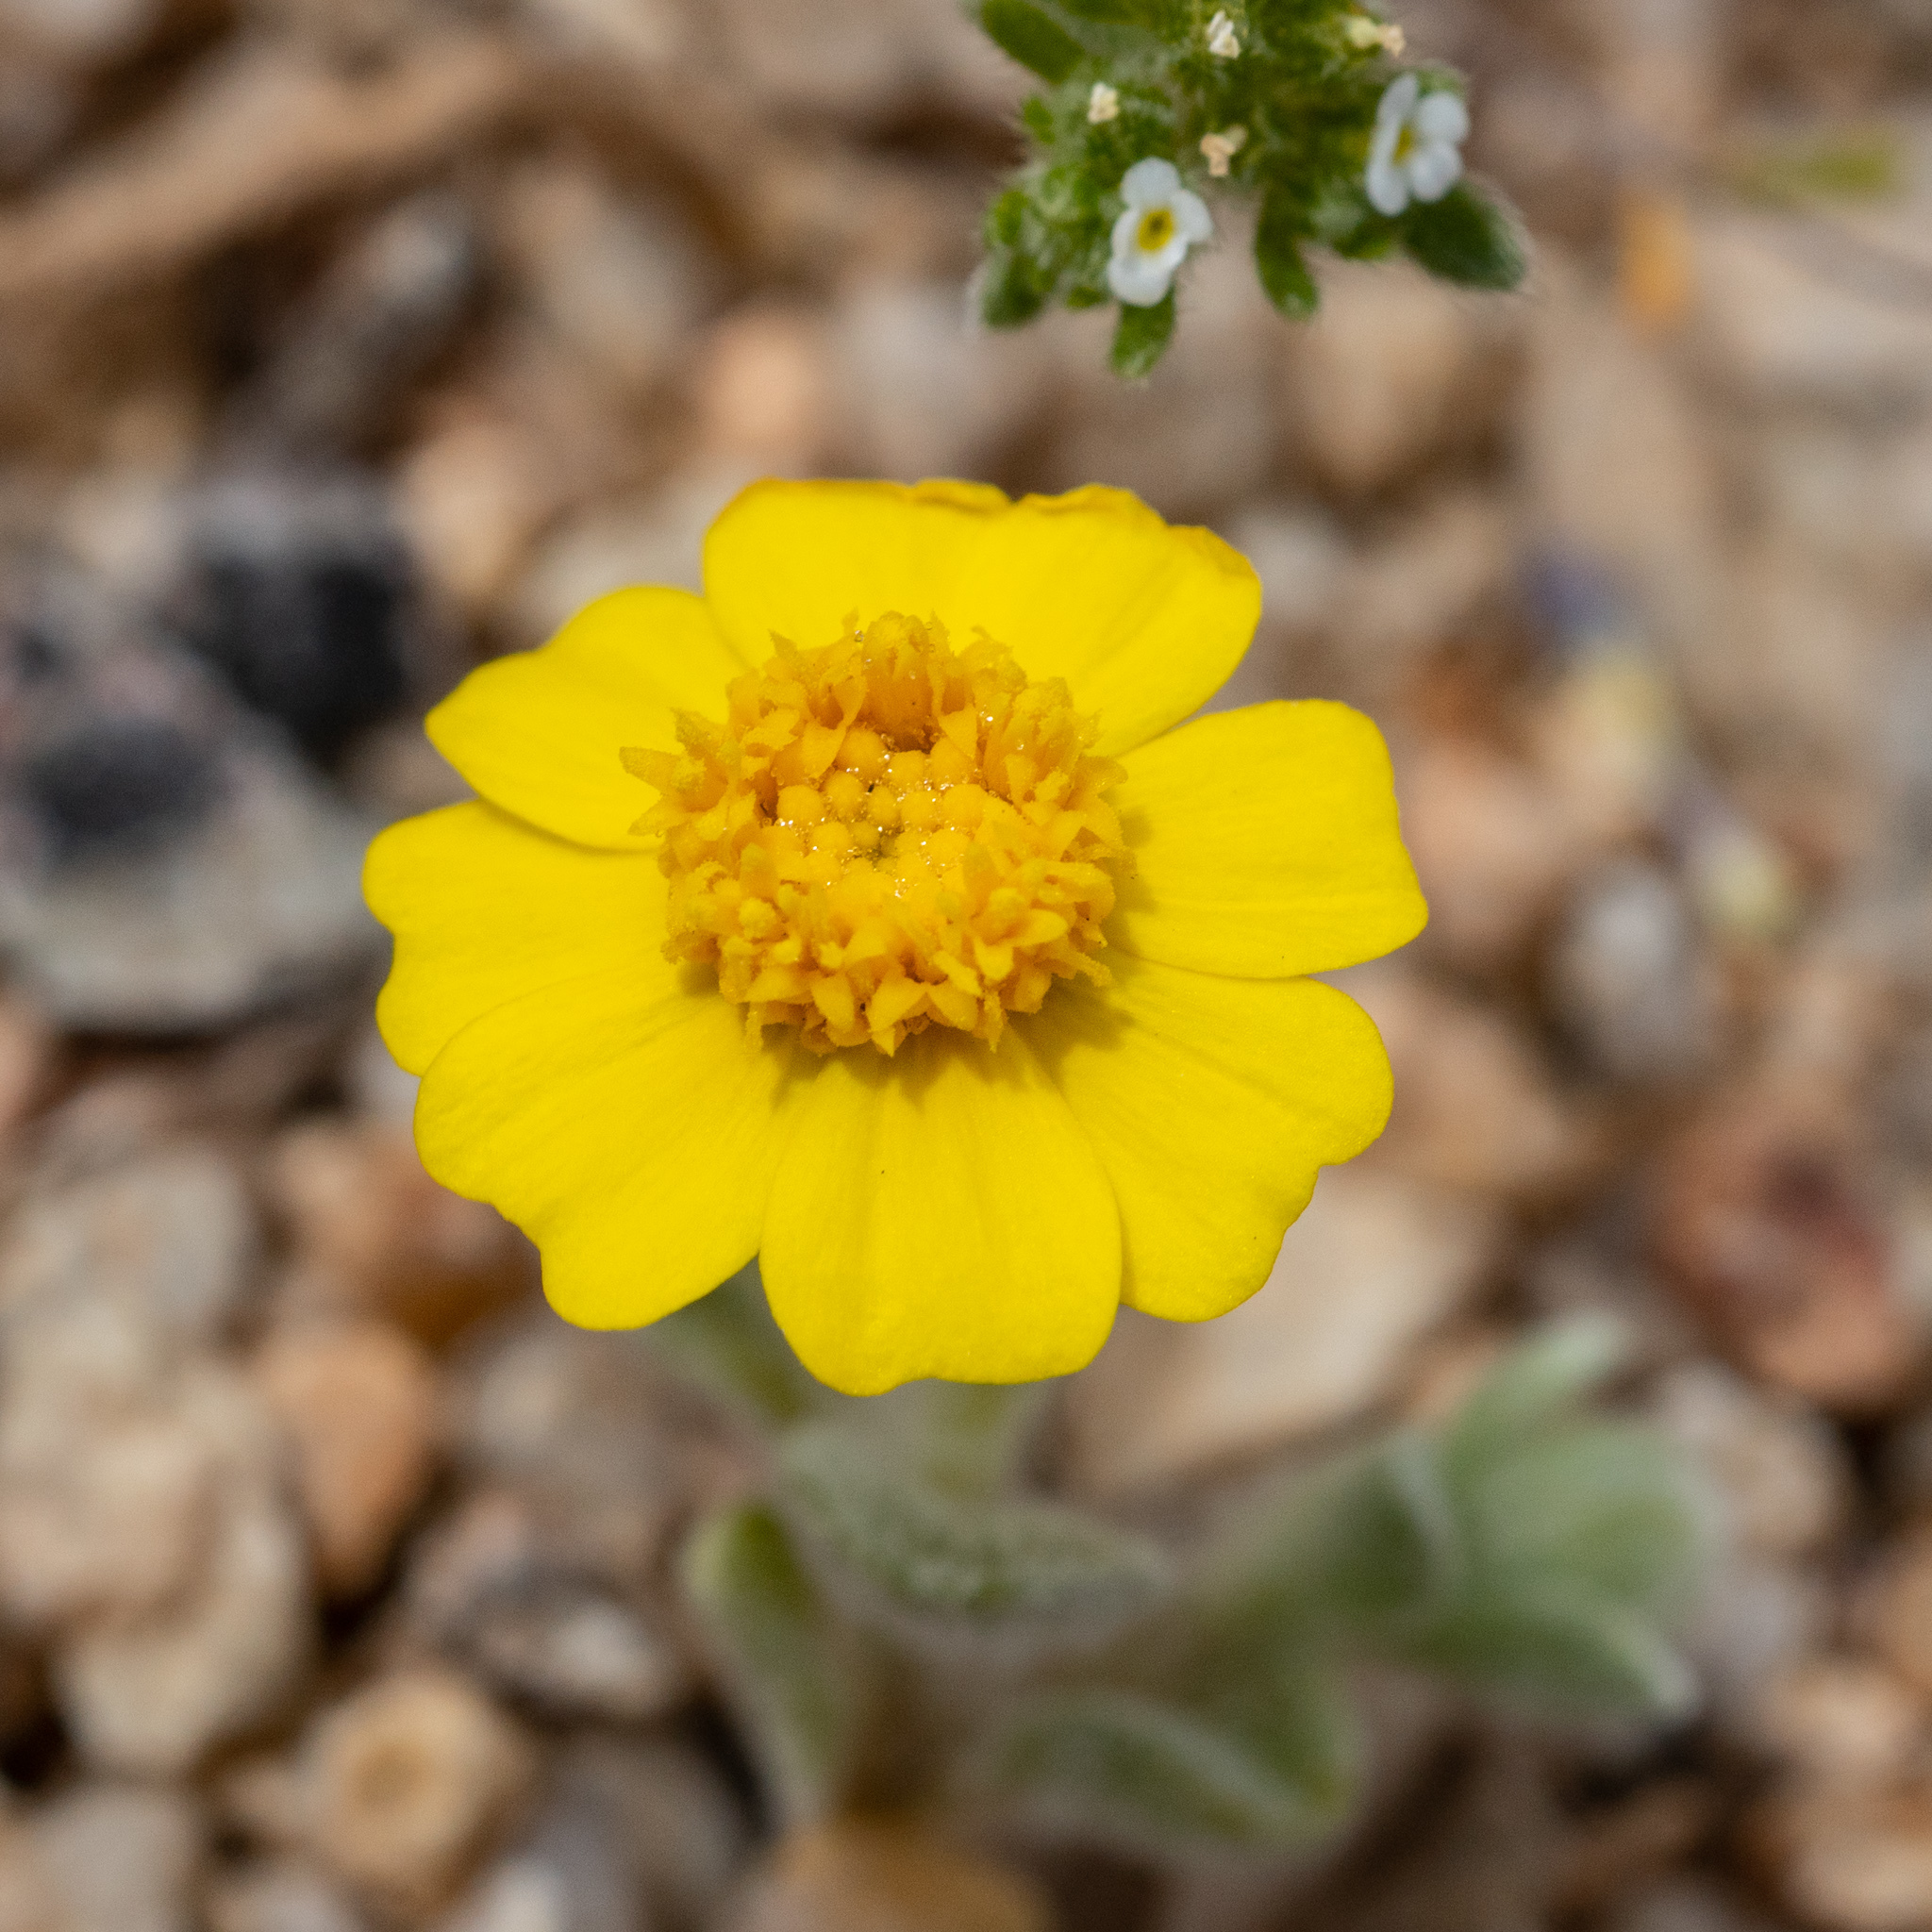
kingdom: Plantae
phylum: Tracheophyta
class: Magnoliopsida
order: Asterales
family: Asteraceae
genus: Eriophyllum
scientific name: Eriophyllum wallacei
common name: Wallace's woolly daisy
